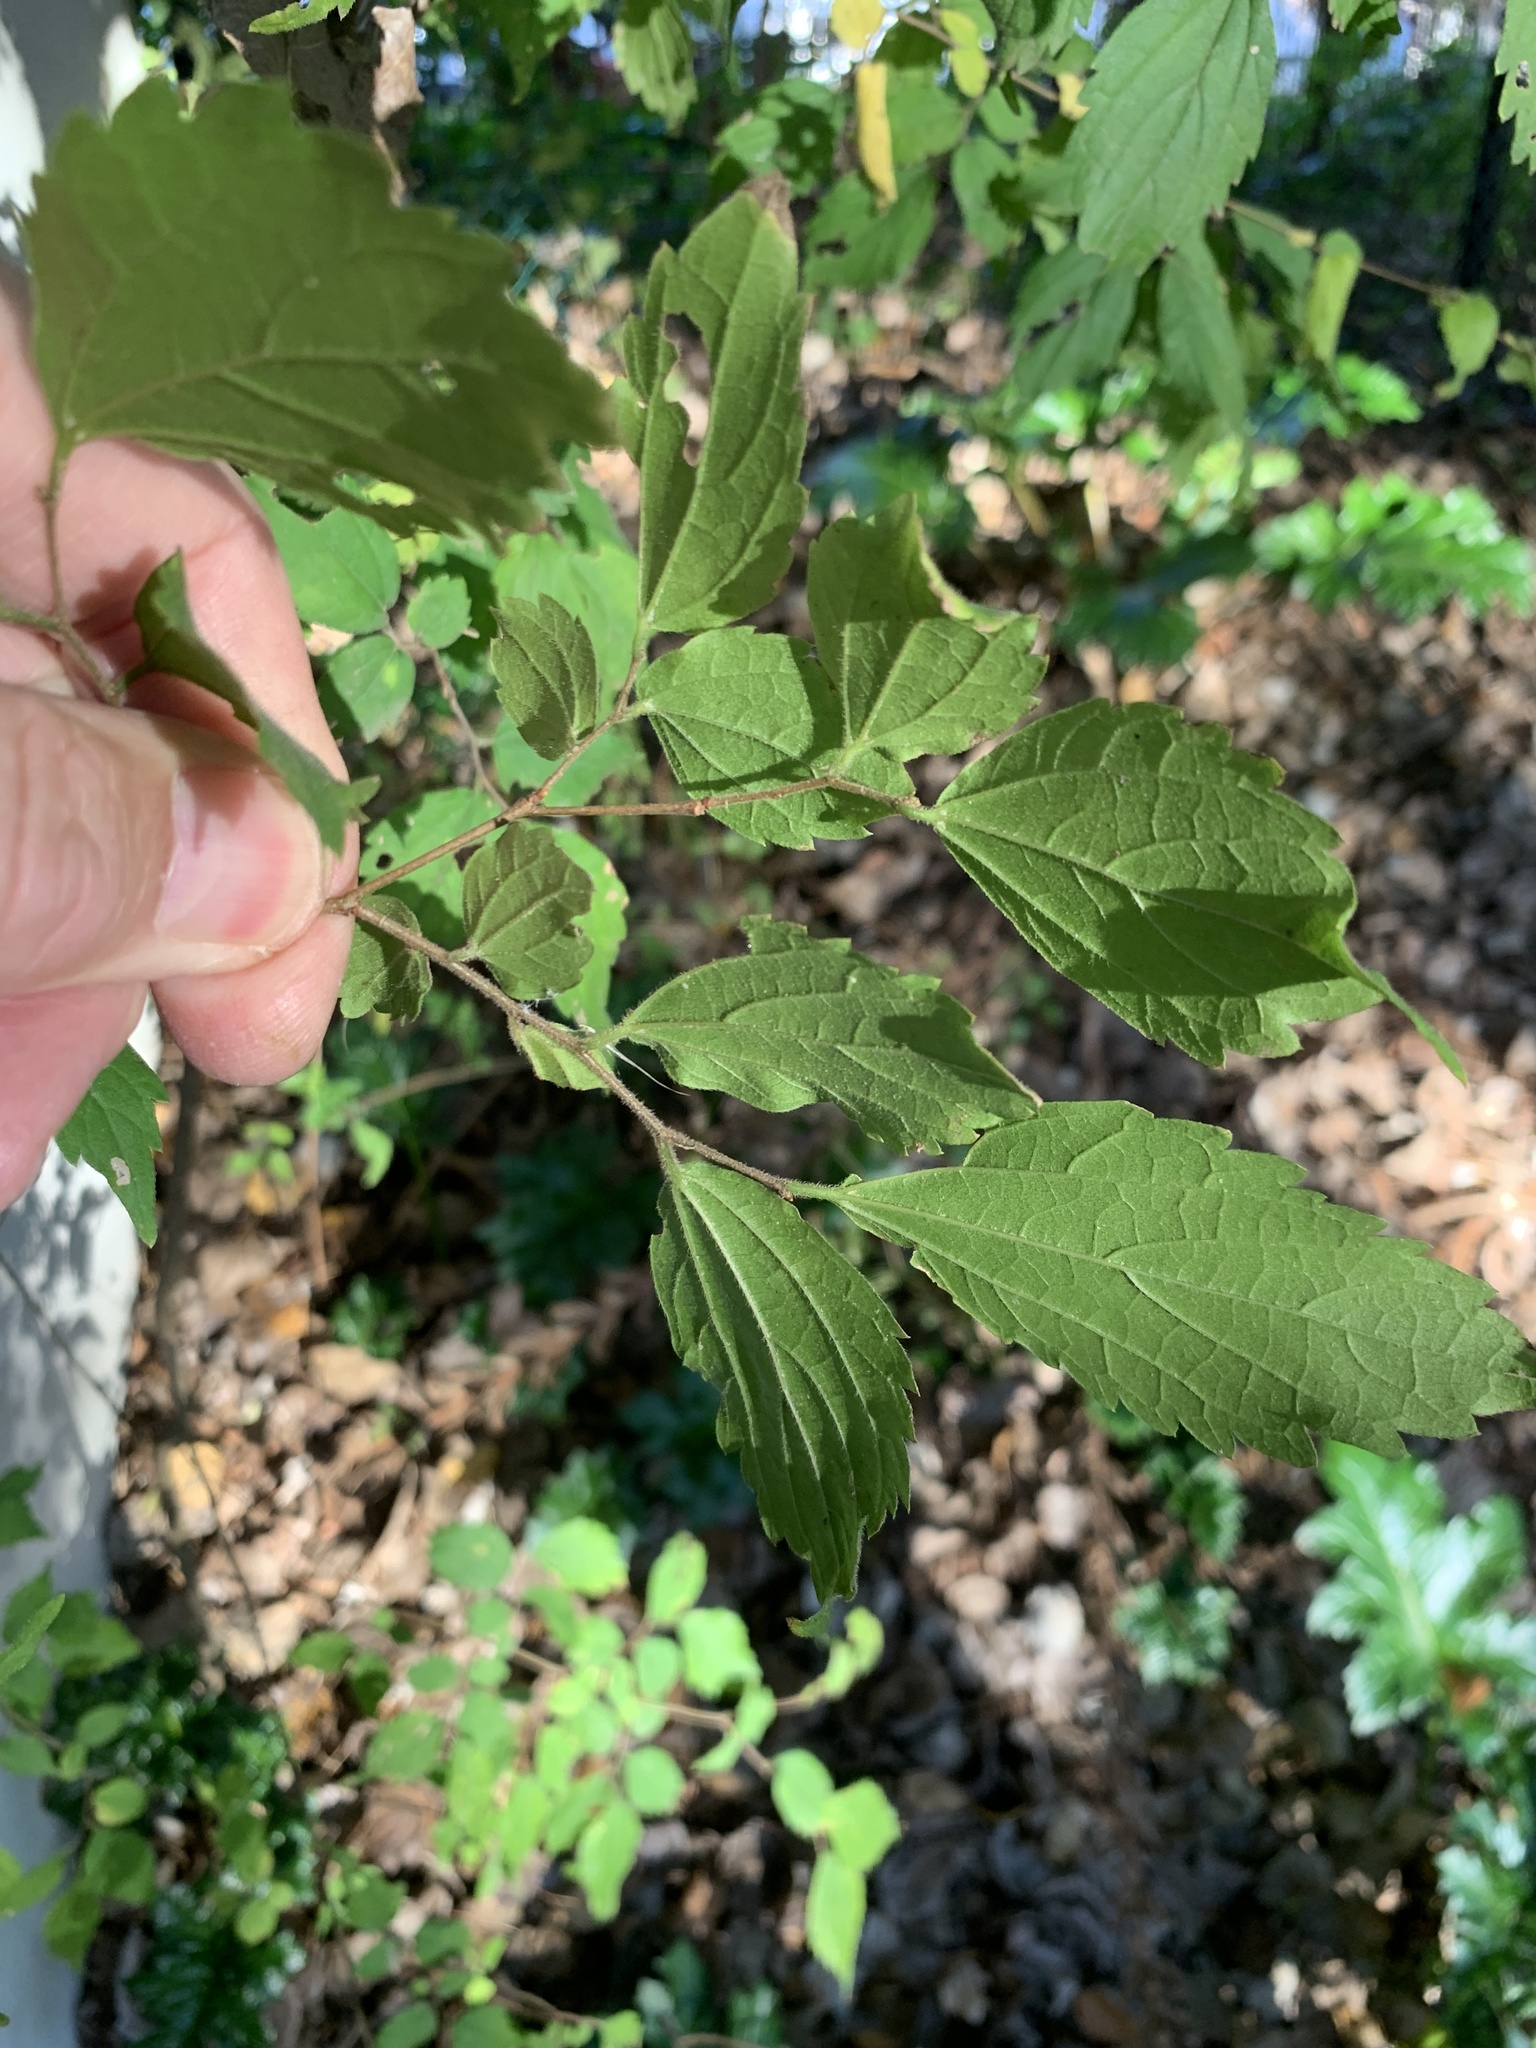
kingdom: Plantae
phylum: Tracheophyta
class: Magnoliopsida
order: Rosales
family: Cannabaceae
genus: Celtis
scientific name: Celtis africana
